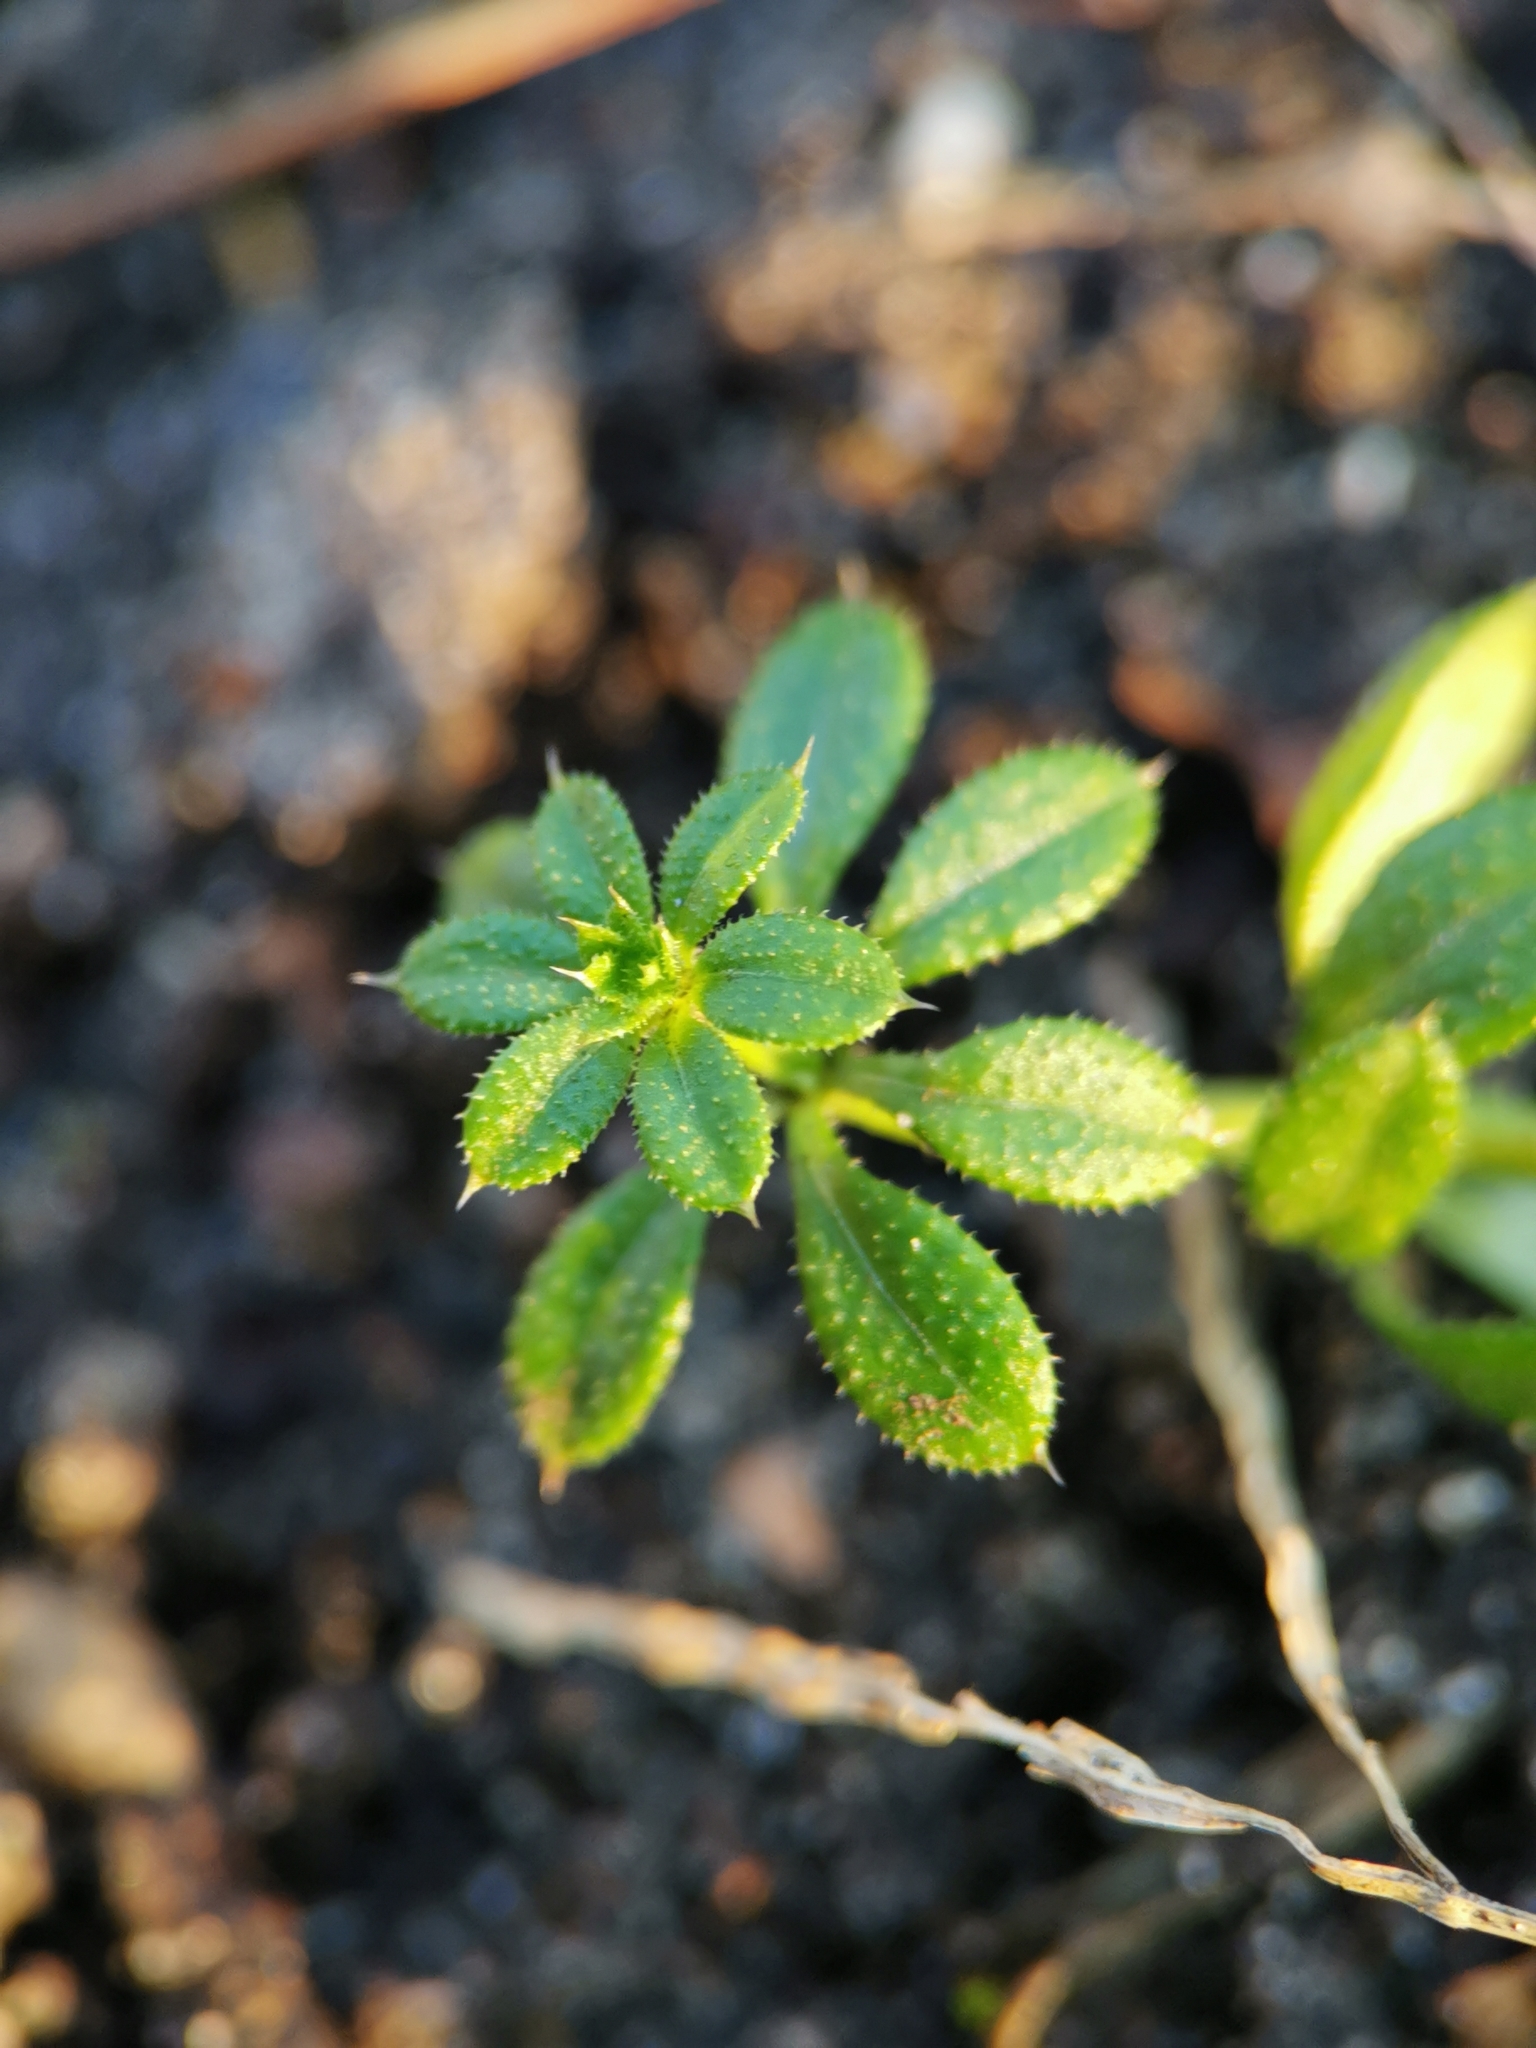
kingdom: Plantae
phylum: Tracheophyta
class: Magnoliopsida
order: Gentianales
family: Rubiaceae
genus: Galium
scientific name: Galium aparine
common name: Cleavers
